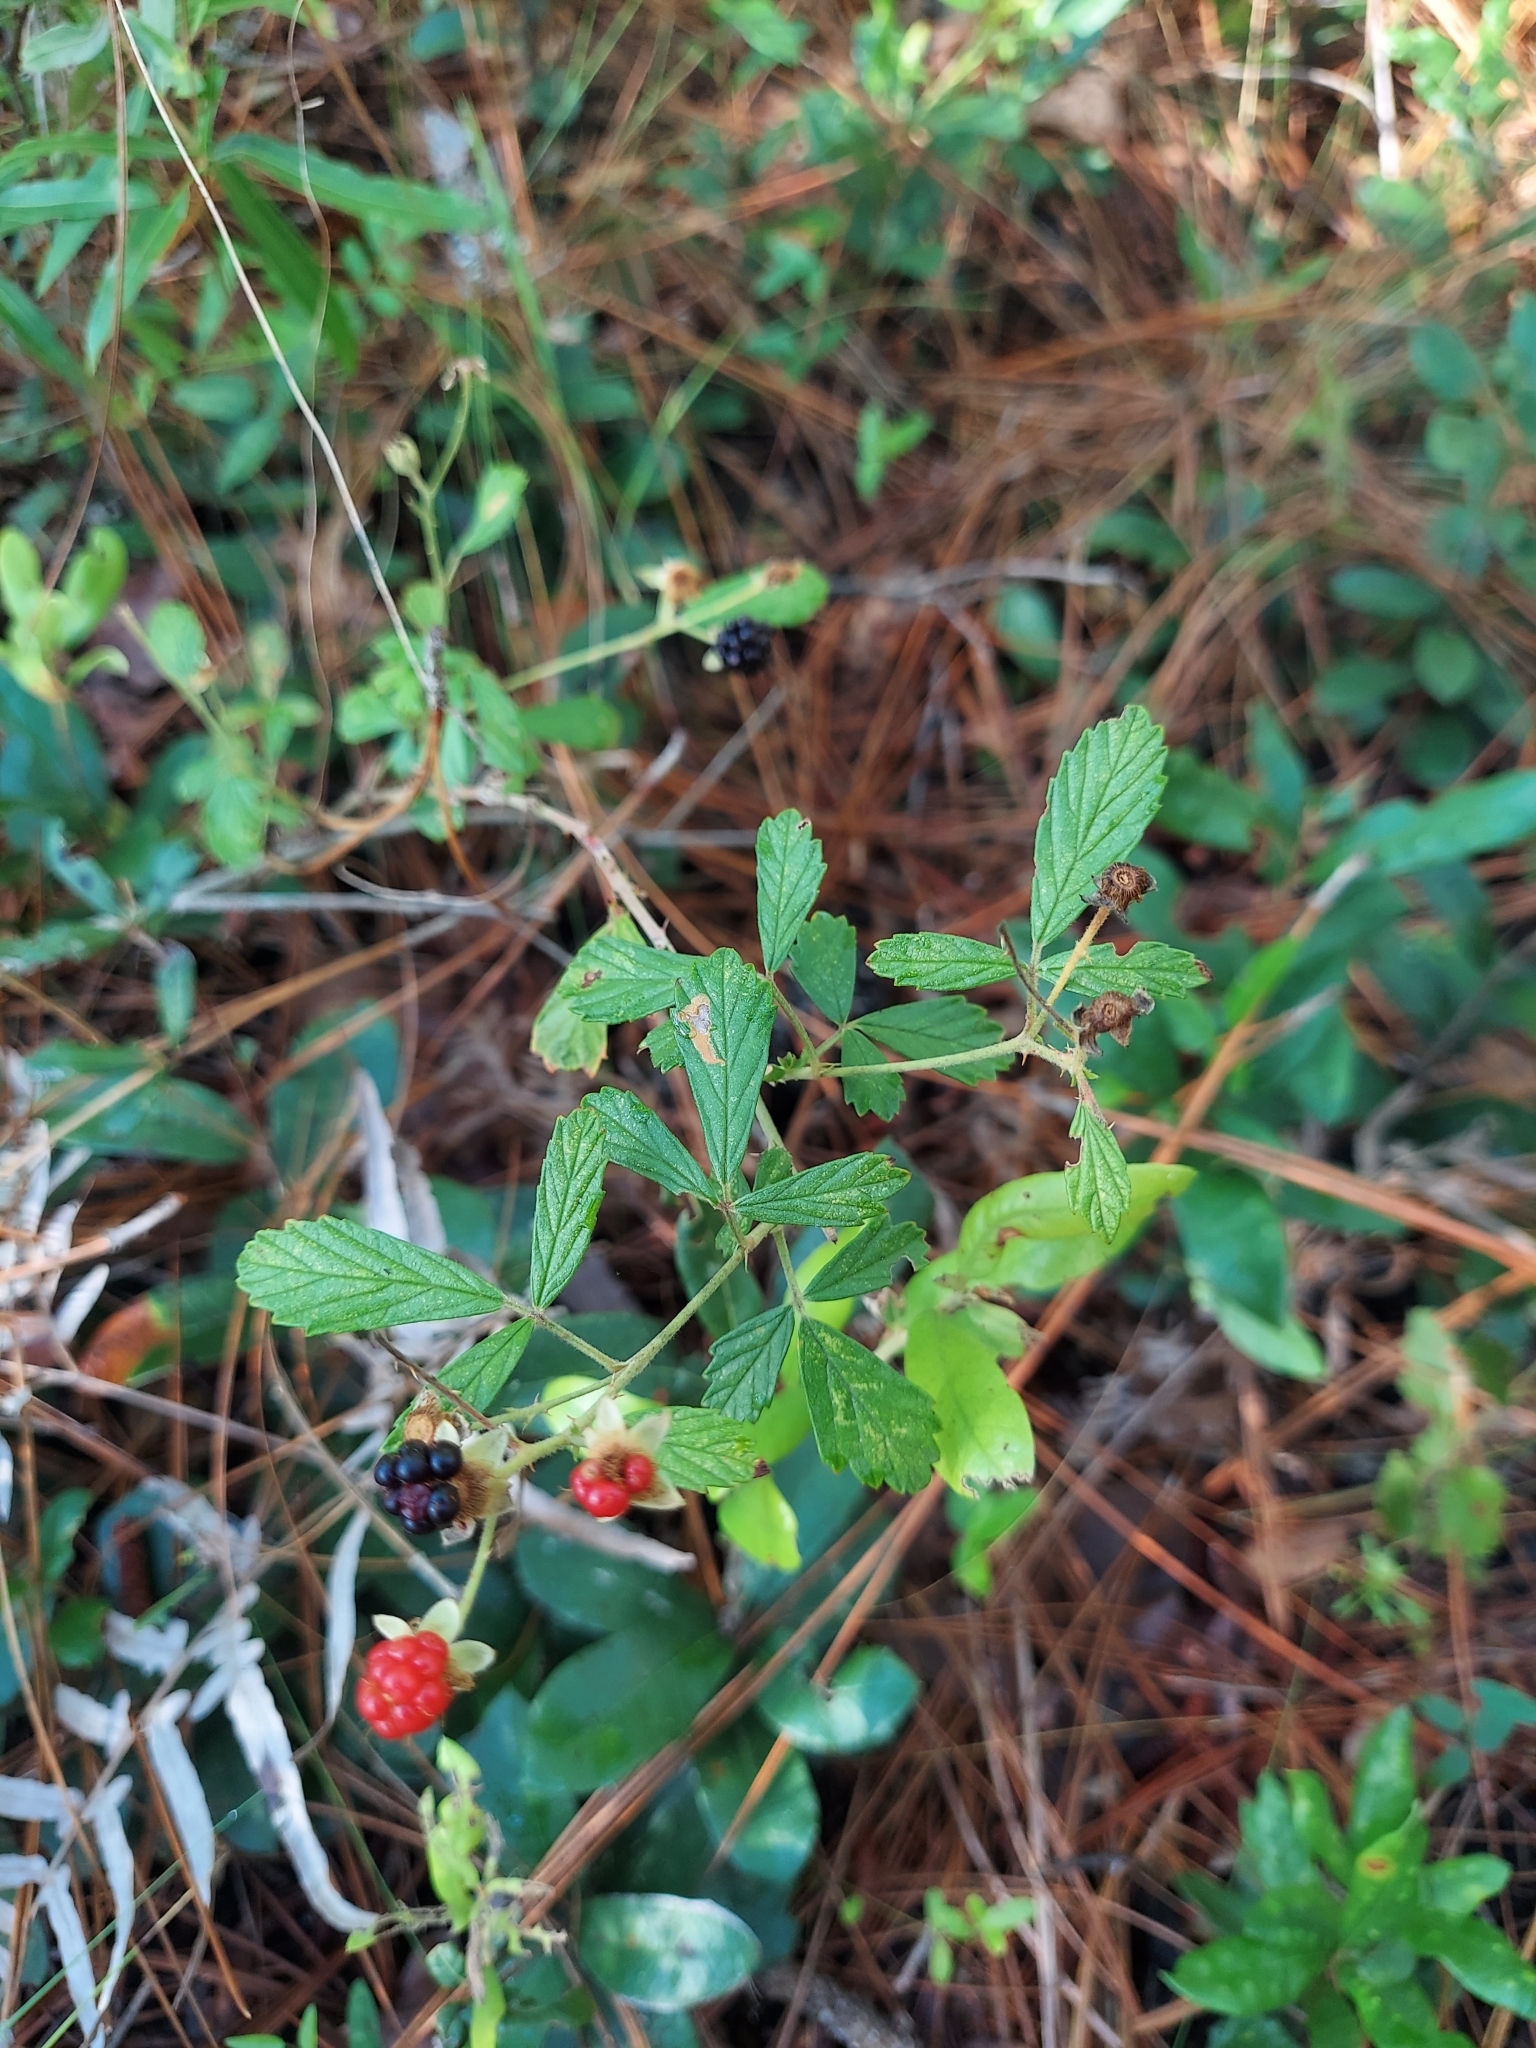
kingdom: Plantae
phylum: Tracheophyta
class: Magnoliopsida
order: Rosales
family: Rosaceae
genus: Rubus
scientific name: Rubus cuneifolius
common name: American bramble
